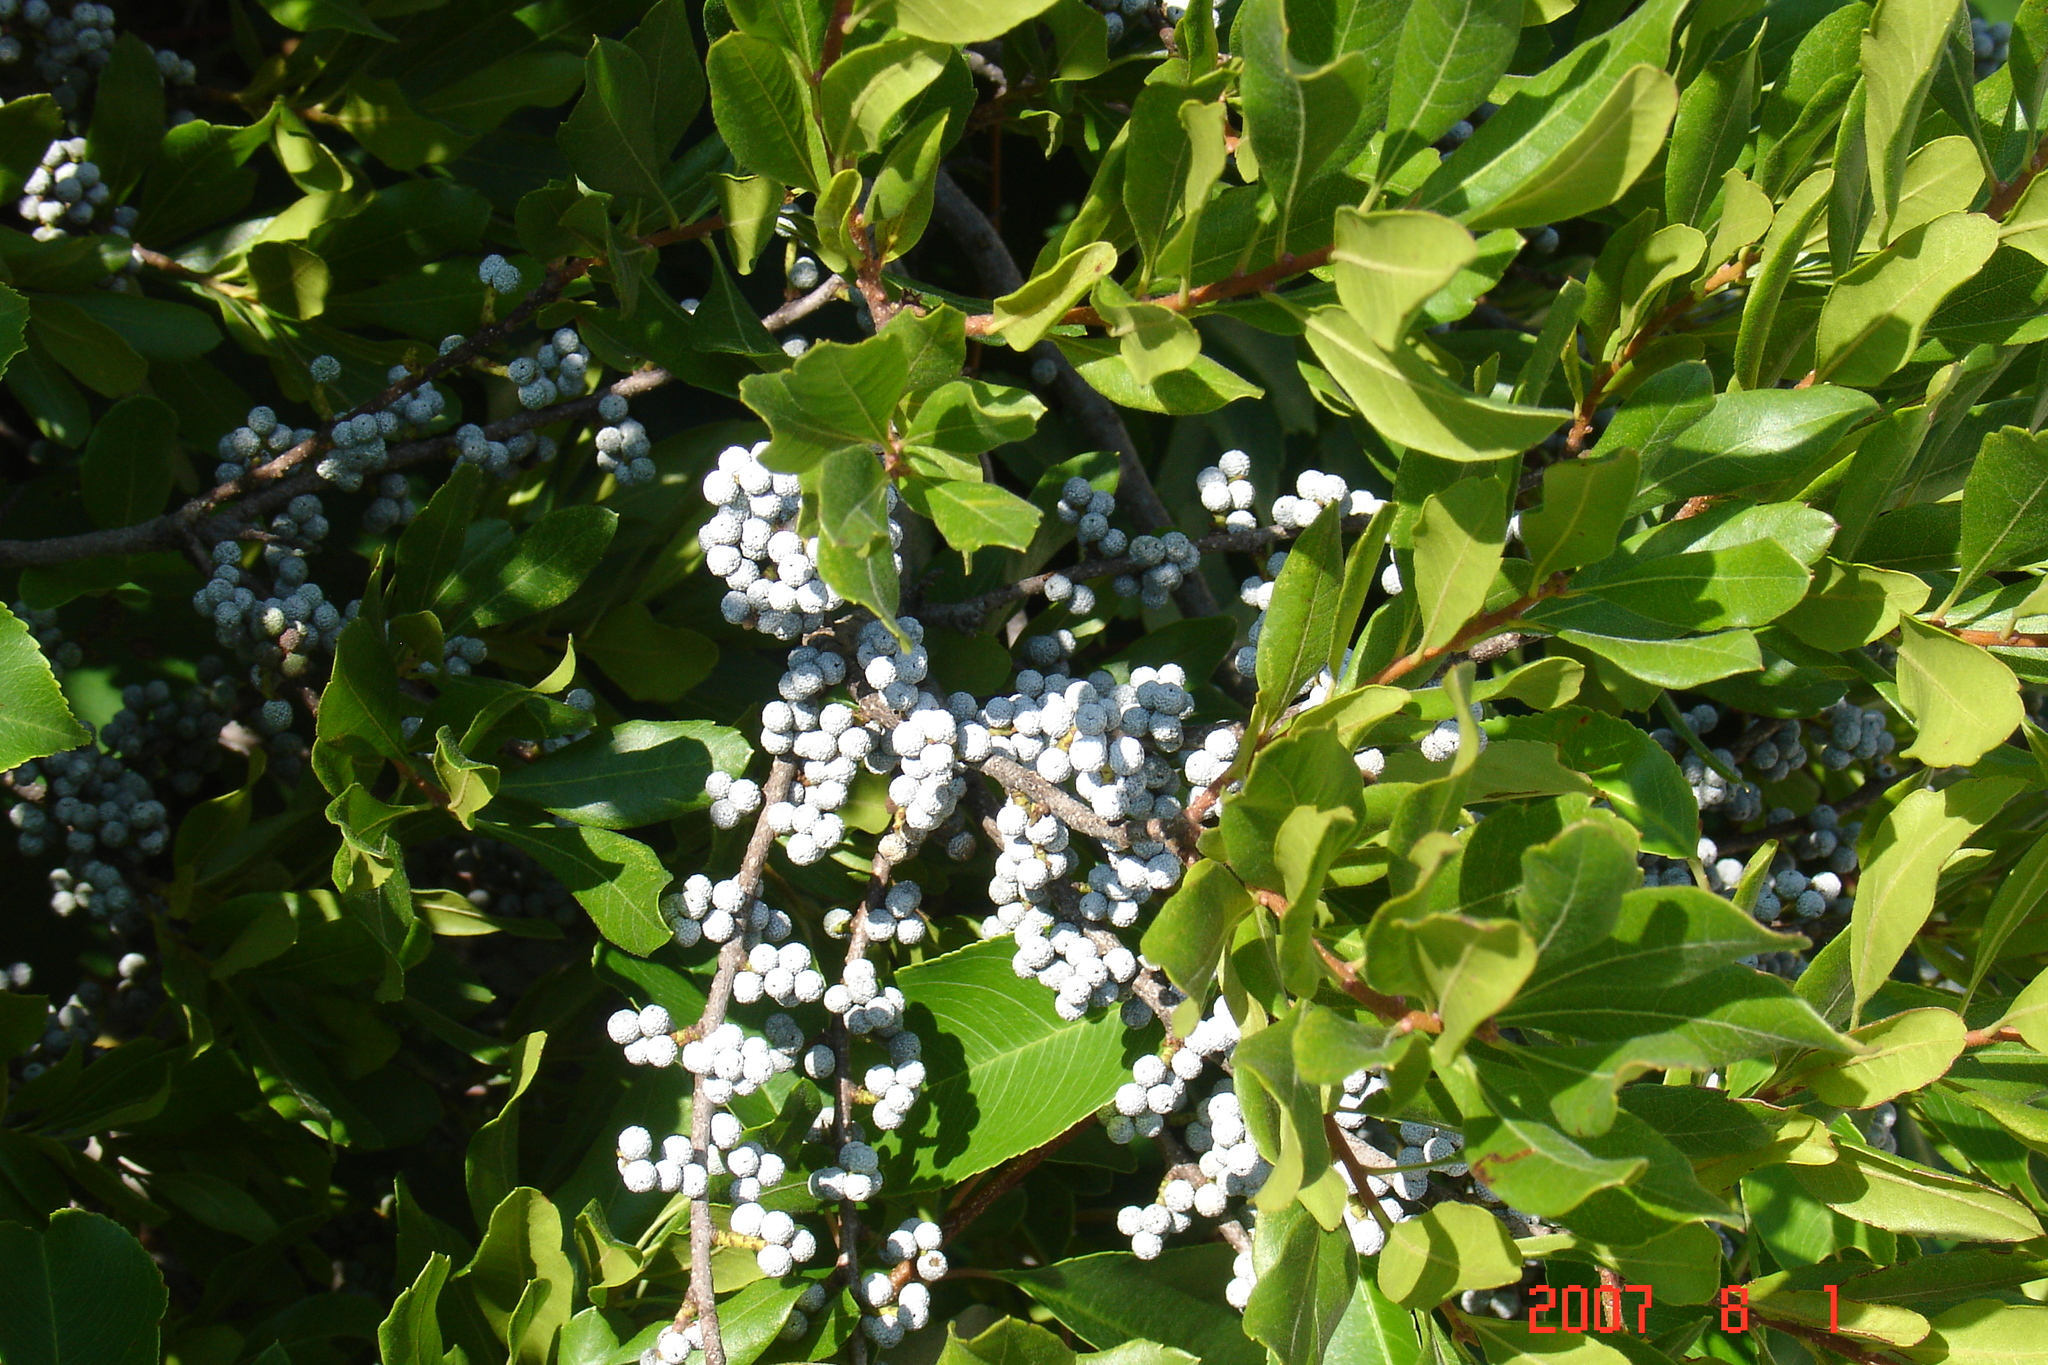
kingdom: Plantae
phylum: Tracheophyta
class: Magnoliopsida
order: Fagales
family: Myricaceae
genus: Morella
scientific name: Morella pensylvanica
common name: Northern bayberry
